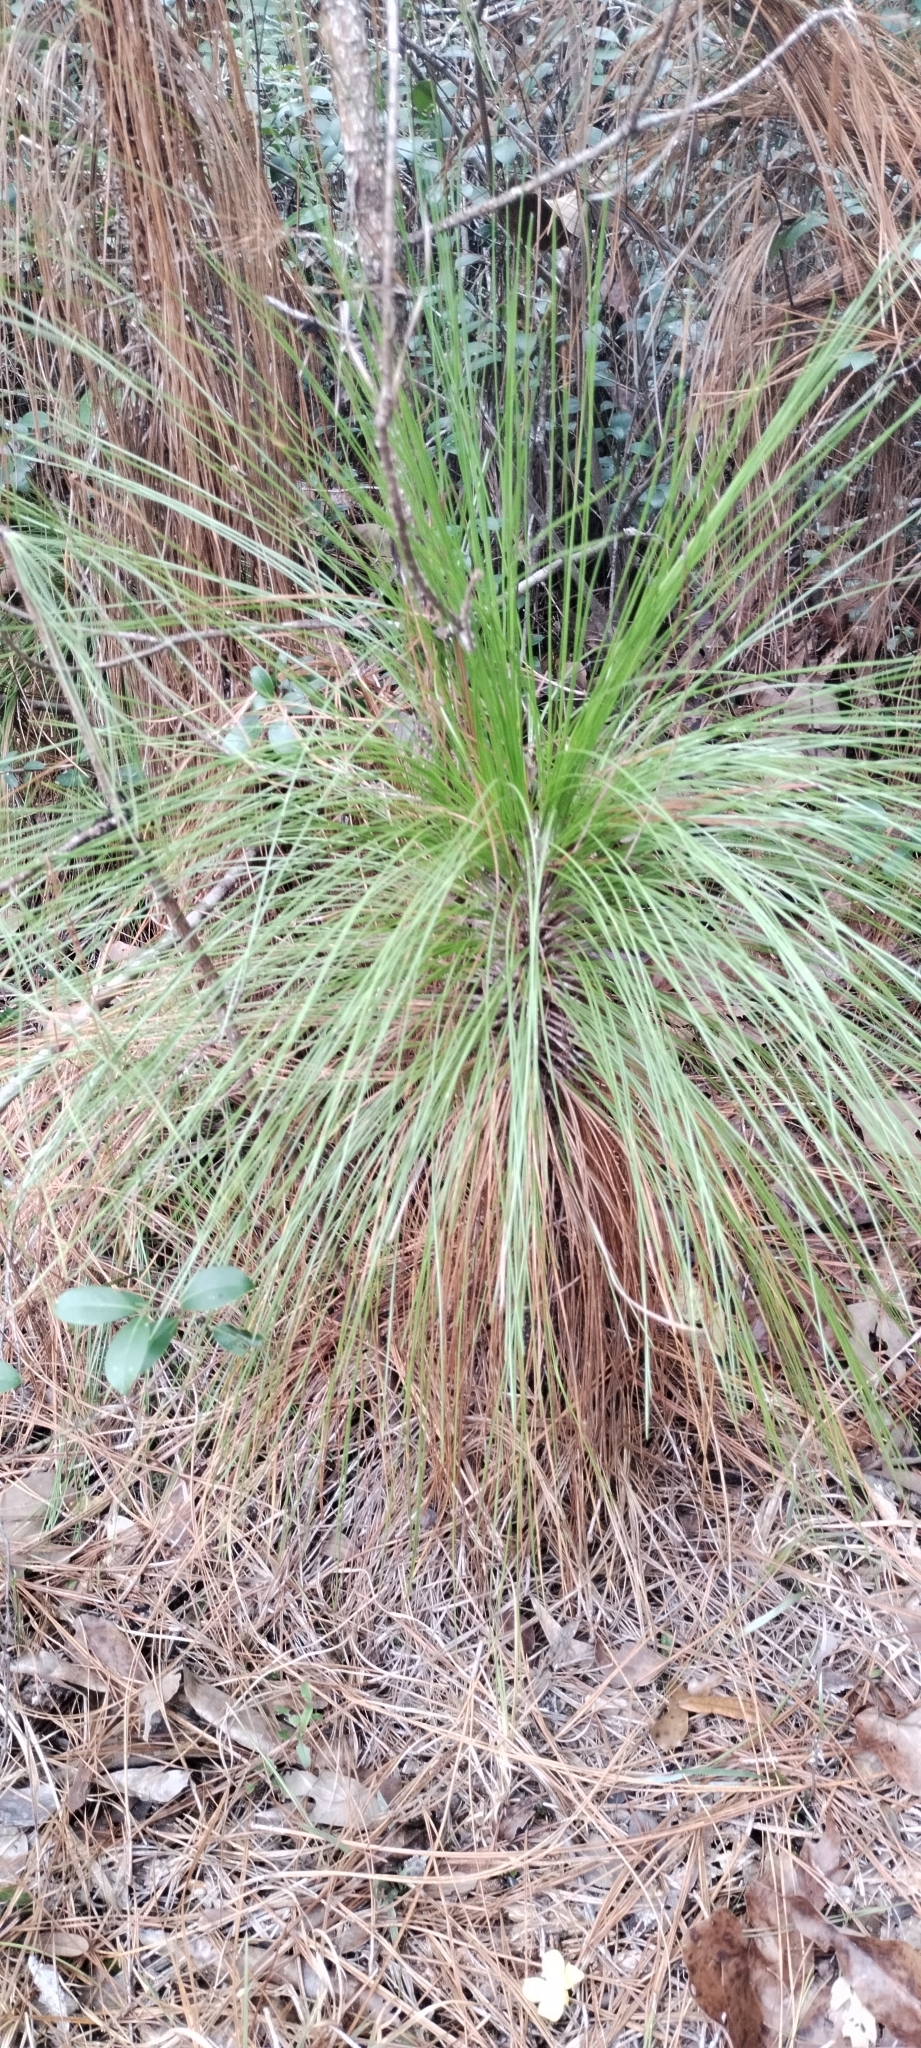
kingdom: Plantae
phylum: Tracheophyta
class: Pinopsida
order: Pinales
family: Pinaceae
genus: Pinus
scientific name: Pinus palustris
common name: Longleaf pine
